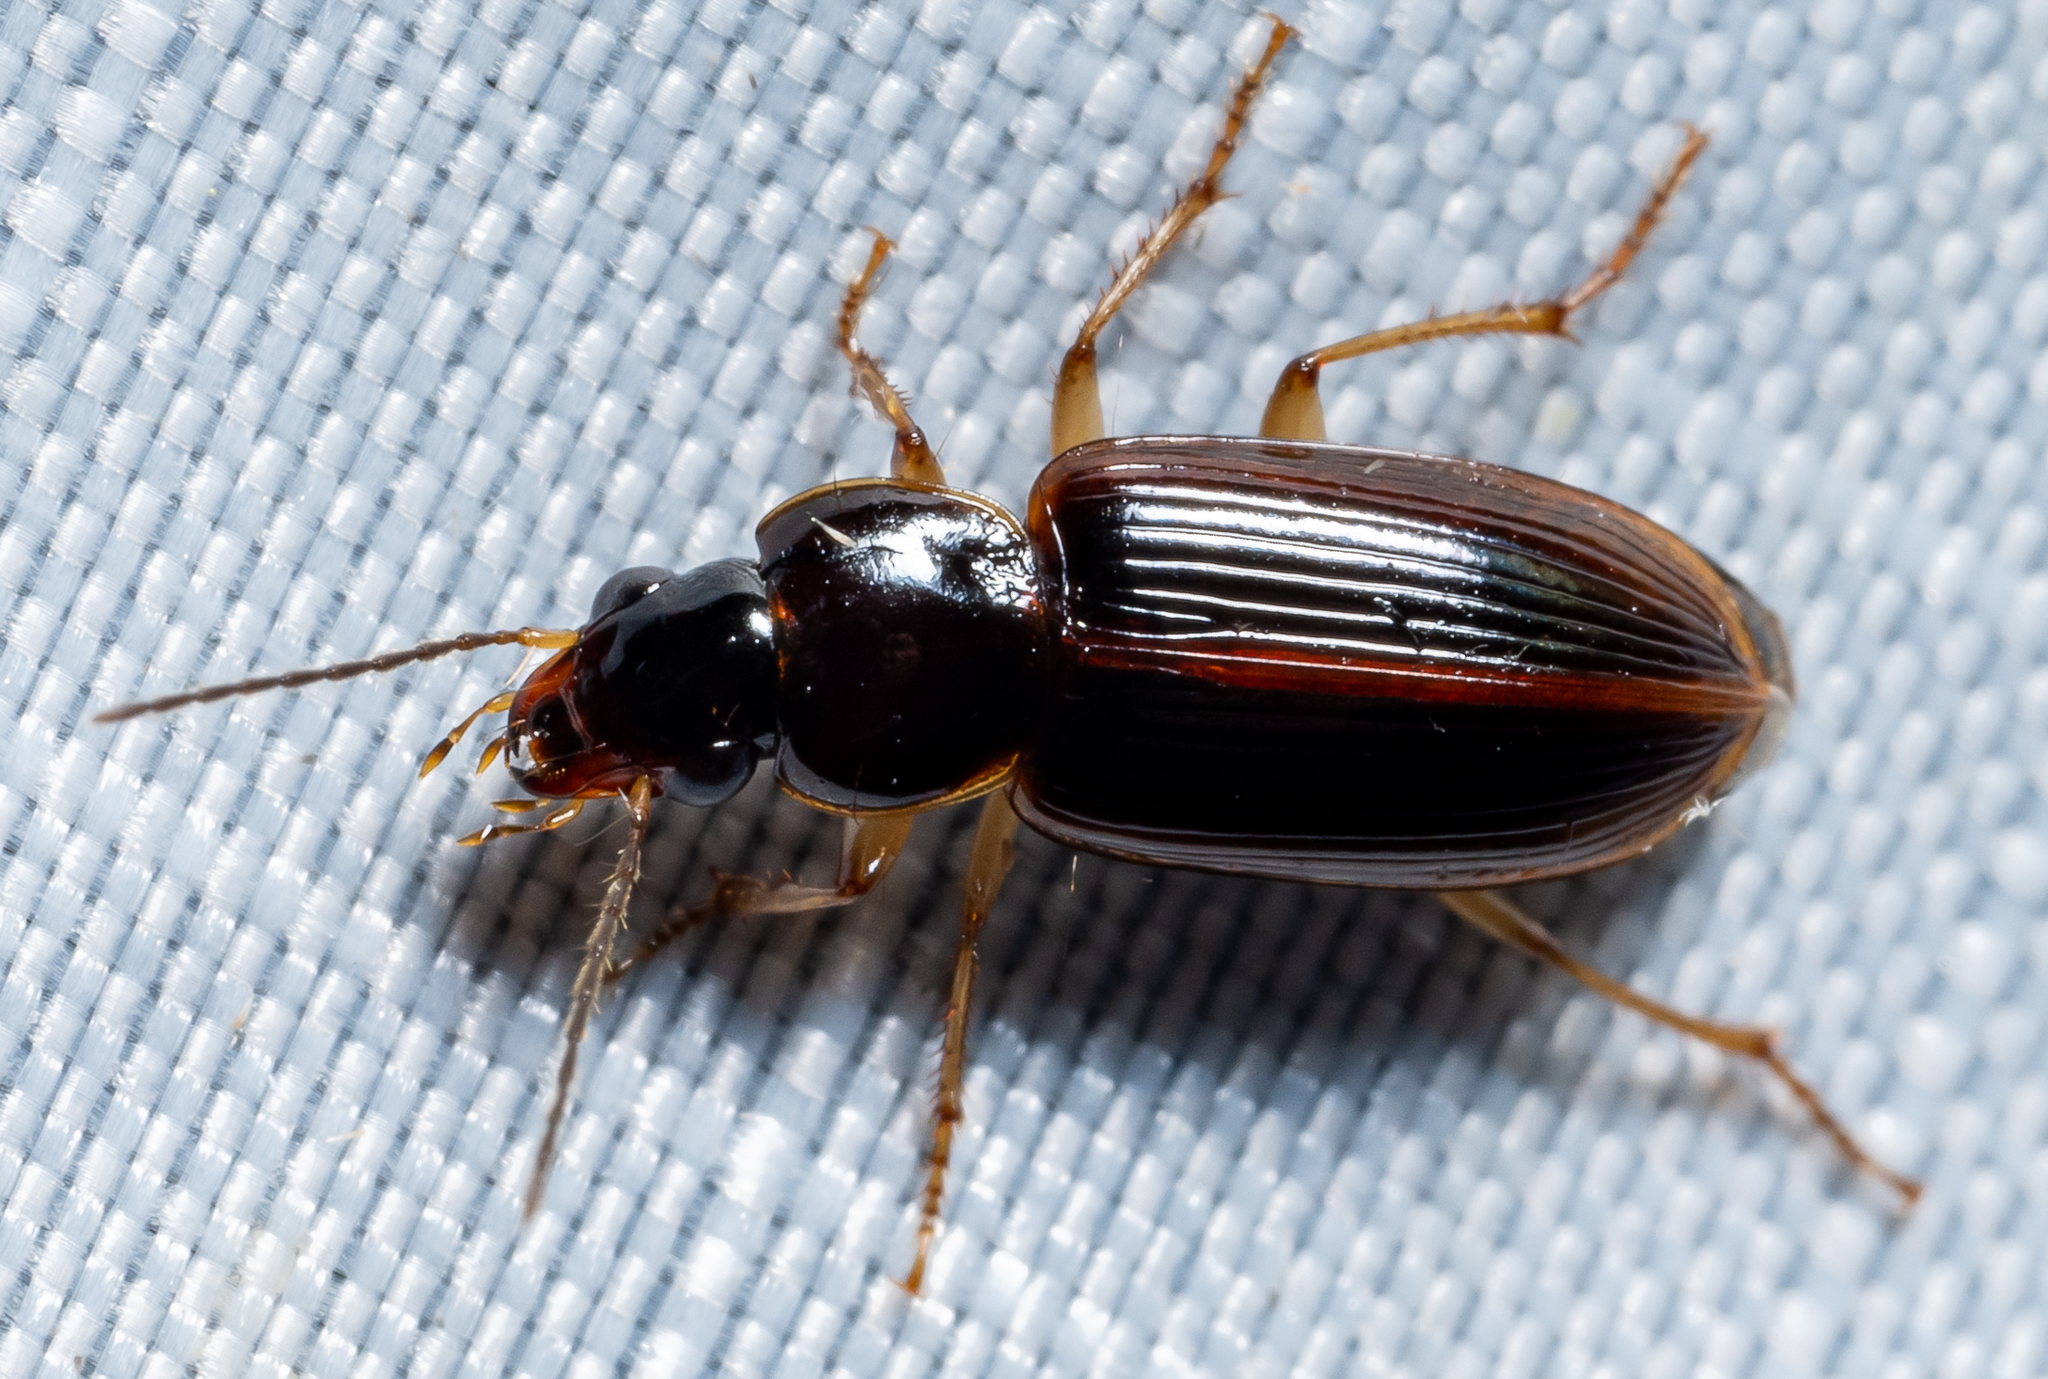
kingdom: Animalia
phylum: Arthropoda
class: Insecta
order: Coleoptera
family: Carabidae
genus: Stenolophus
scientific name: Stenolophus ochropezus
